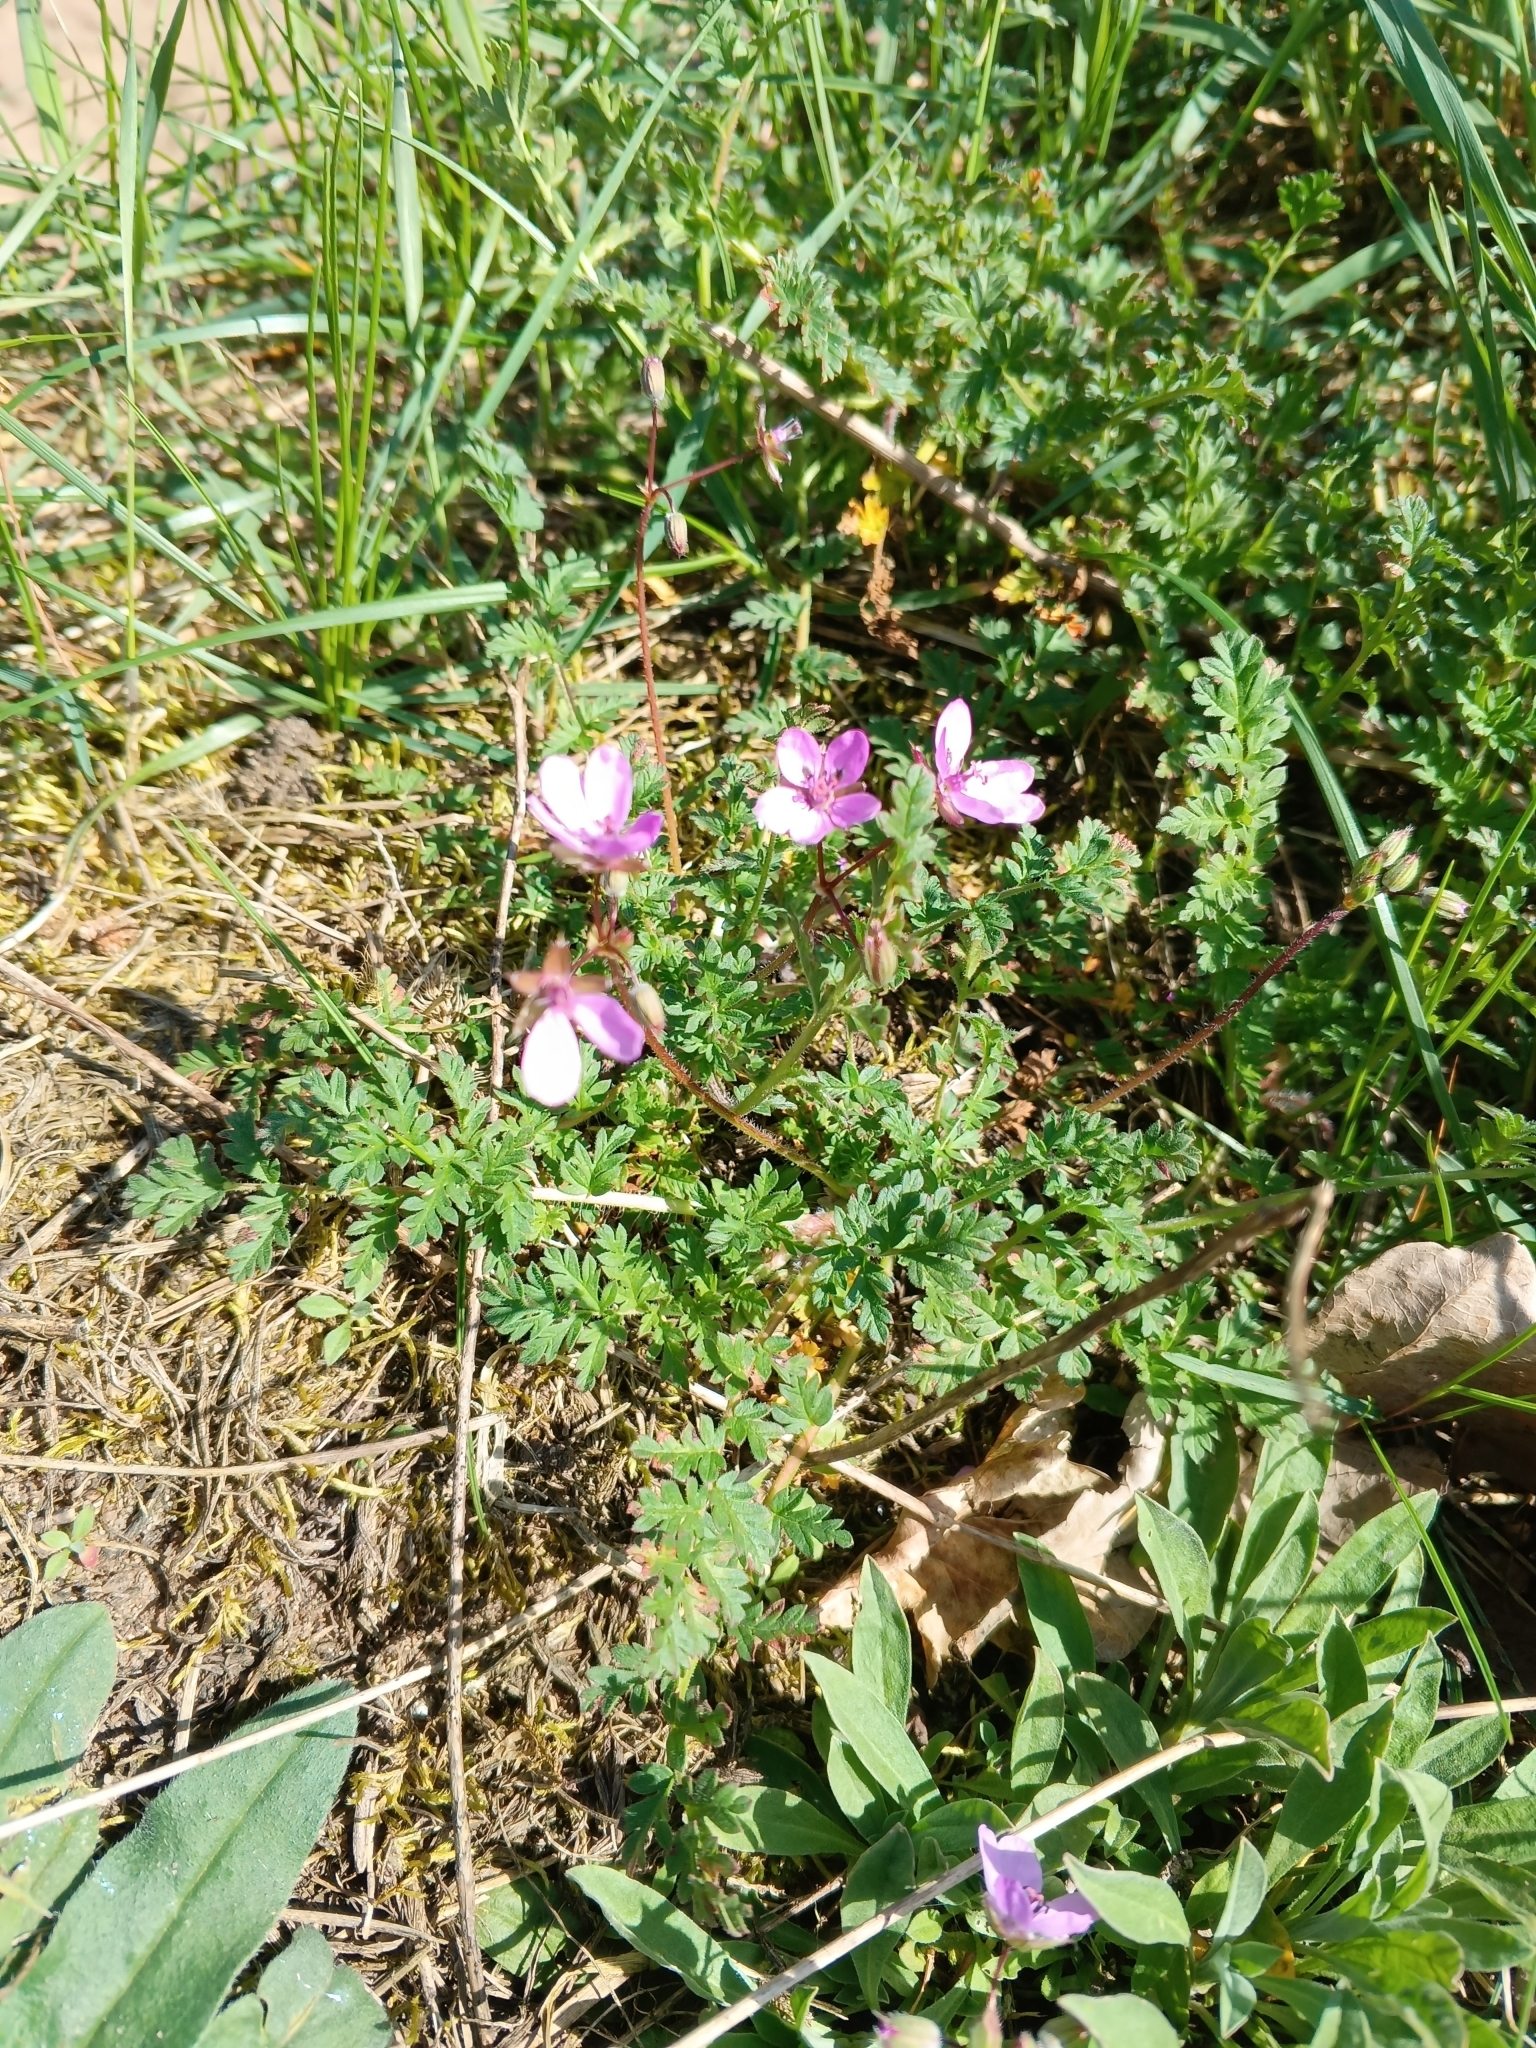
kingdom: Plantae
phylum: Tracheophyta
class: Magnoliopsida
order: Geraniales
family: Geraniaceae
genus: Erodium
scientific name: Erodium cicutarium
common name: Common stork's-bill
